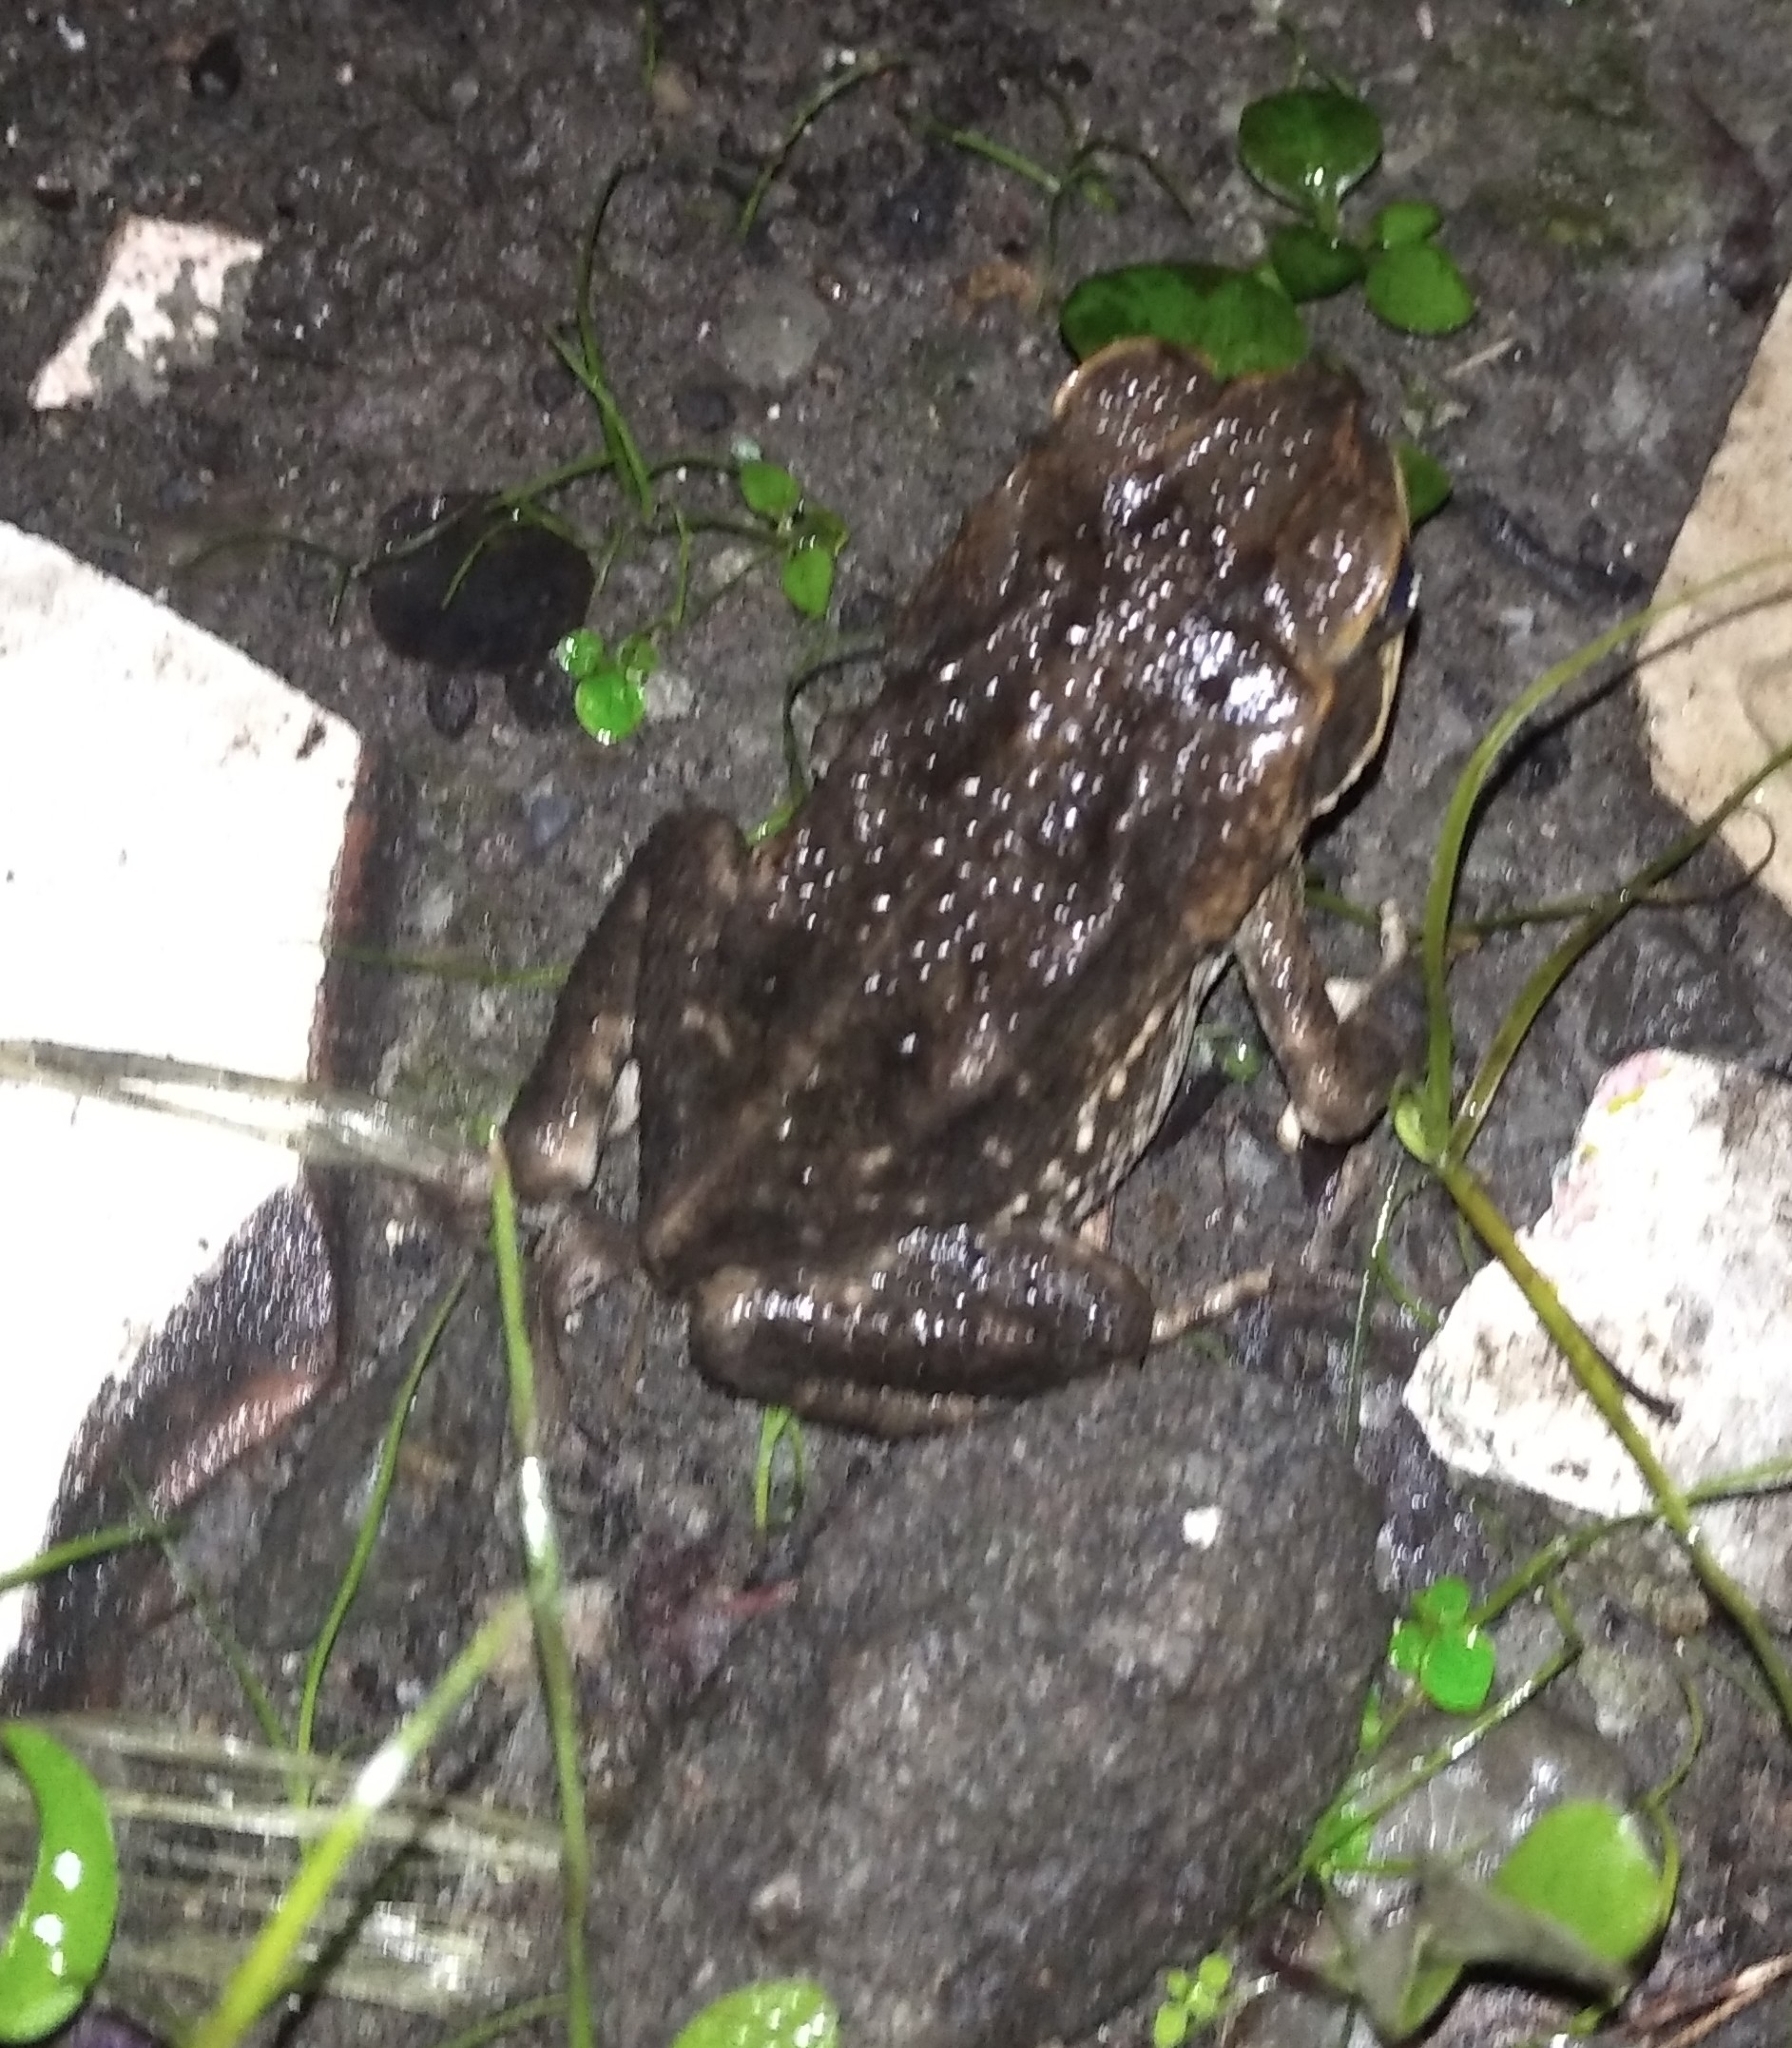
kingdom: Animalia
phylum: Chordata
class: Amphibia
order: Anura
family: Bufonidae
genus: Rhinella
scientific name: Rhinella horribilis
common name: Mesoamerican cane toad
